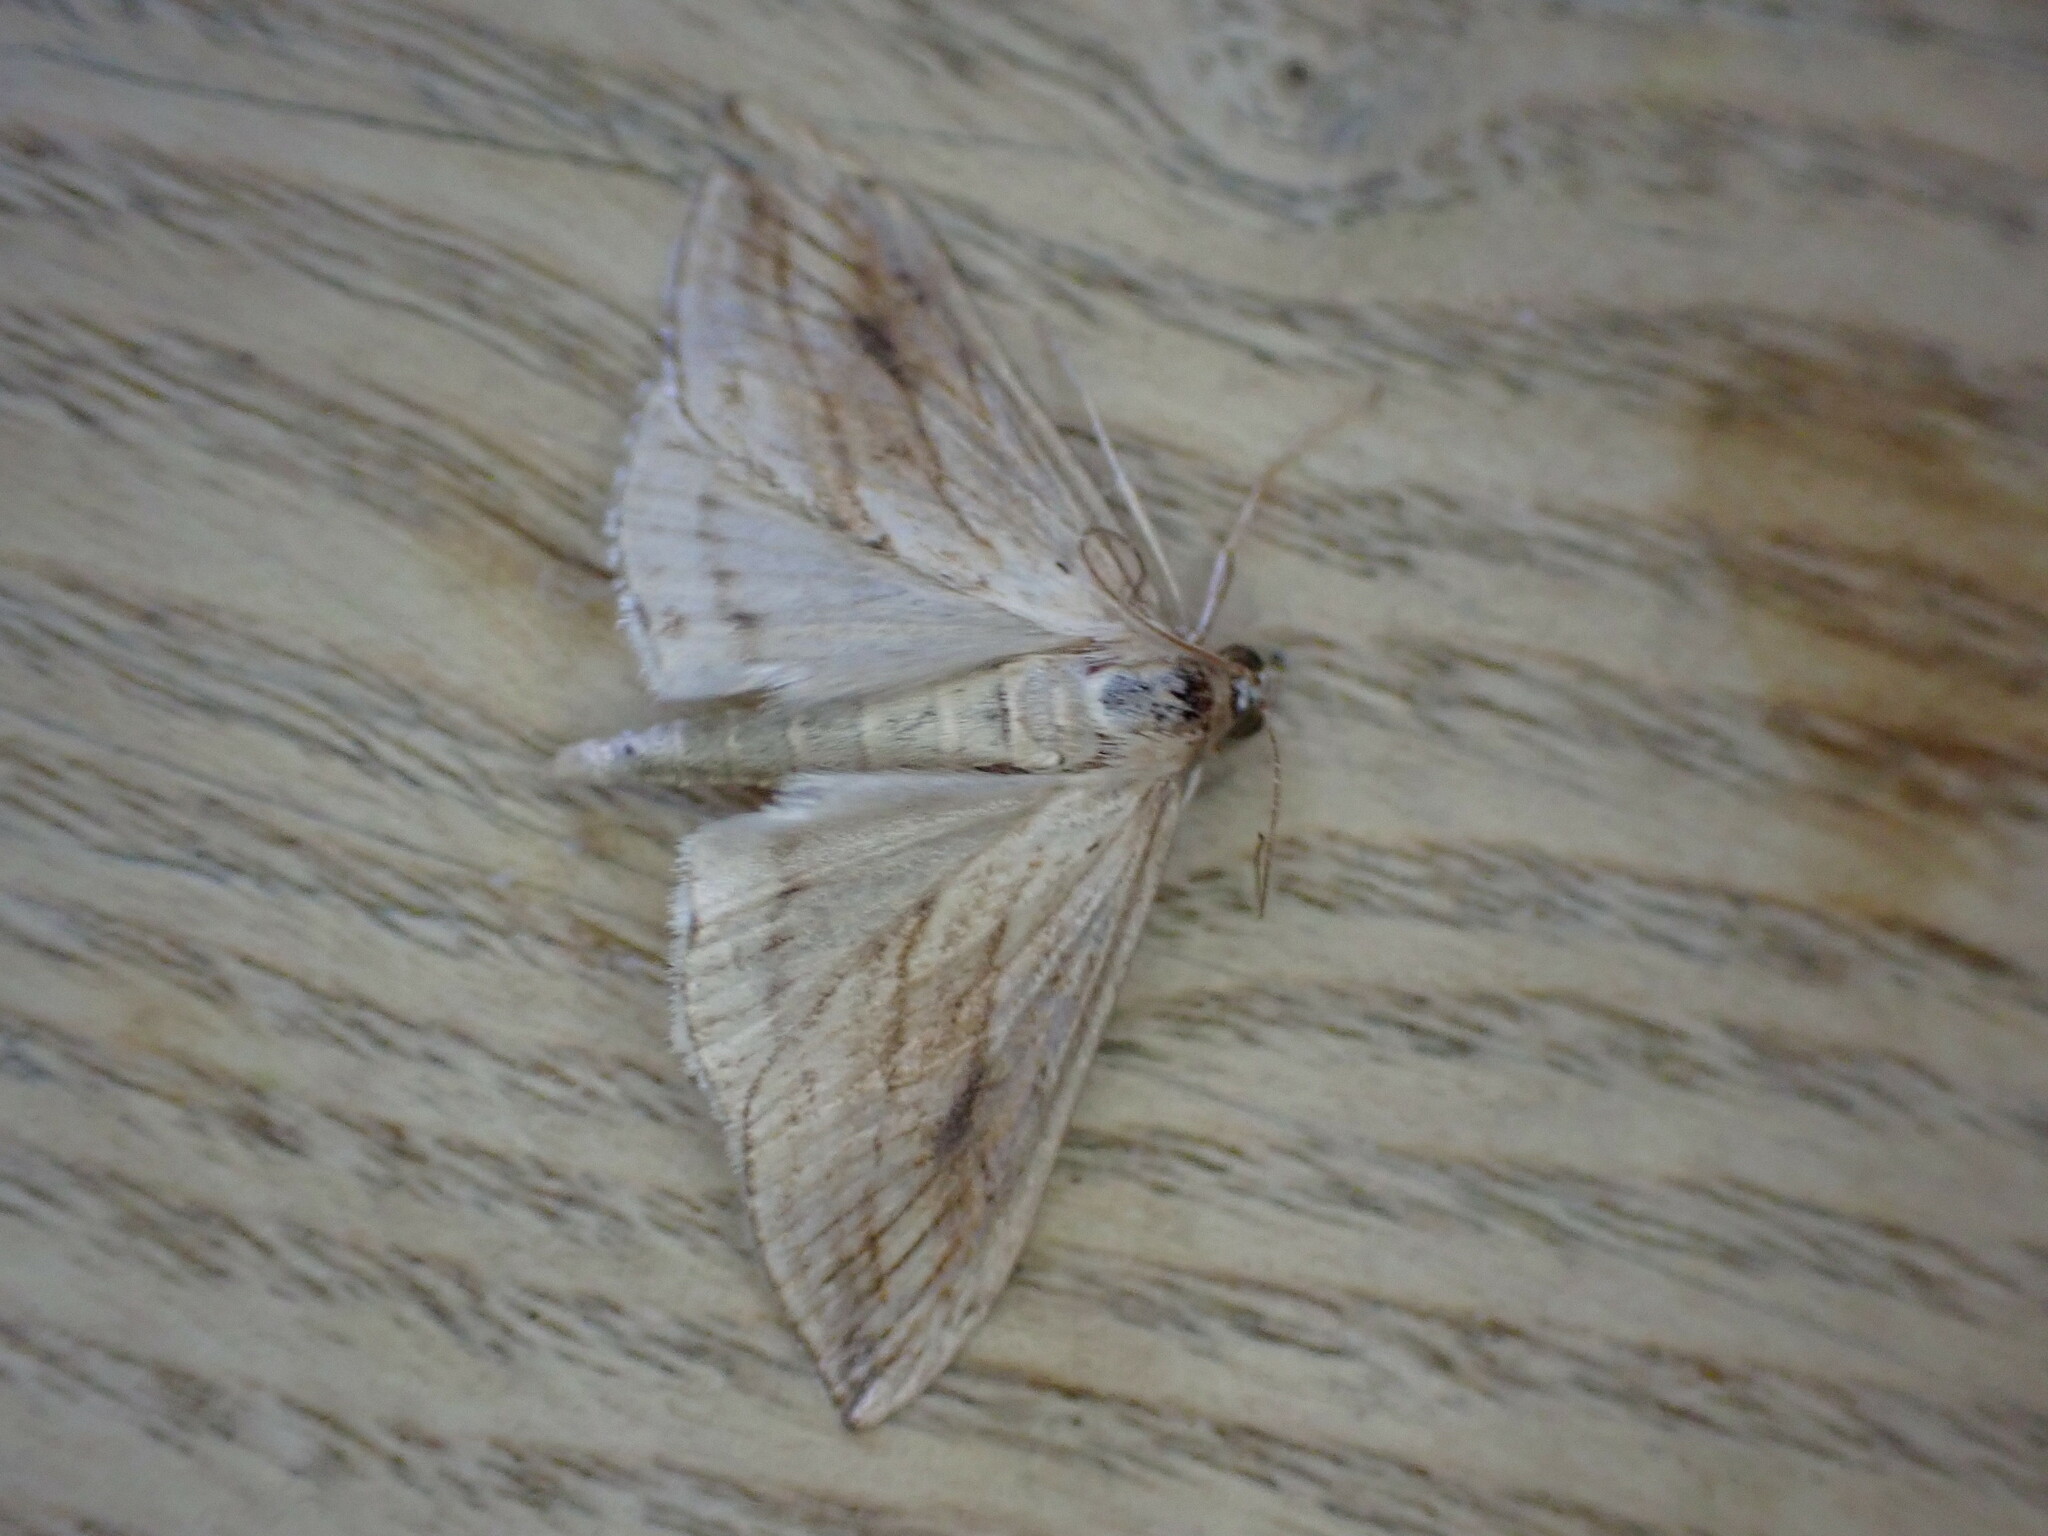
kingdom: Animalia
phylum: Arthropoda
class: Insecta
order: Lepidoptera
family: Crambidae
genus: Evergestis
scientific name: Evergestis forficalis
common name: Garden pebble
